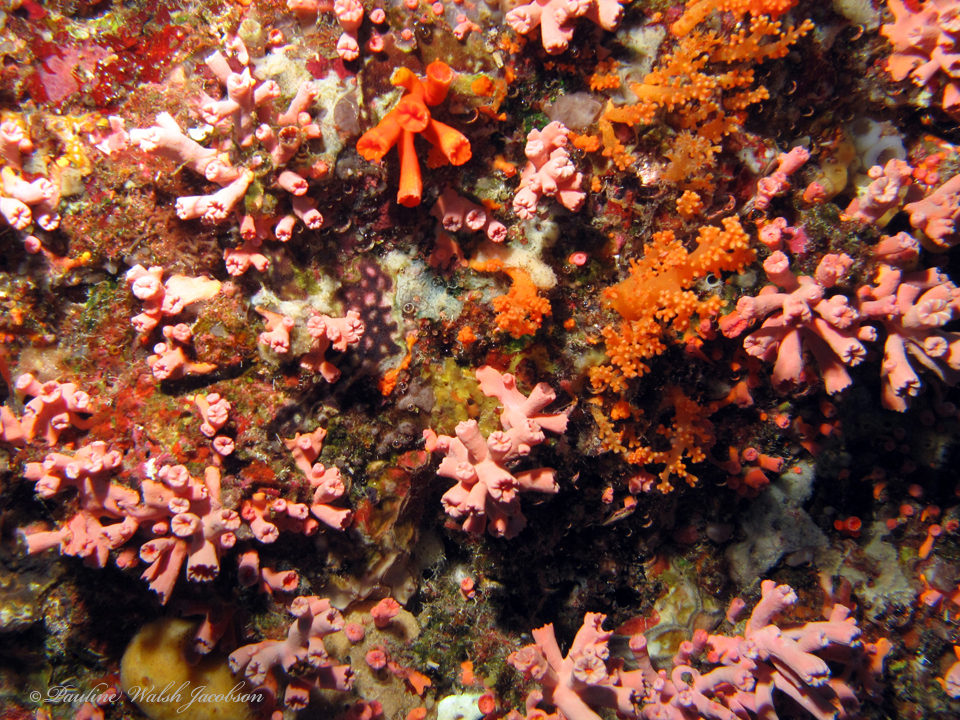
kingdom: Animalia
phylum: Cnidaria
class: Anthozoa
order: Scleractinia
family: Dendrophylliidae
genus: Cladopsammia
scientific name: Cladopsammia gracilis
